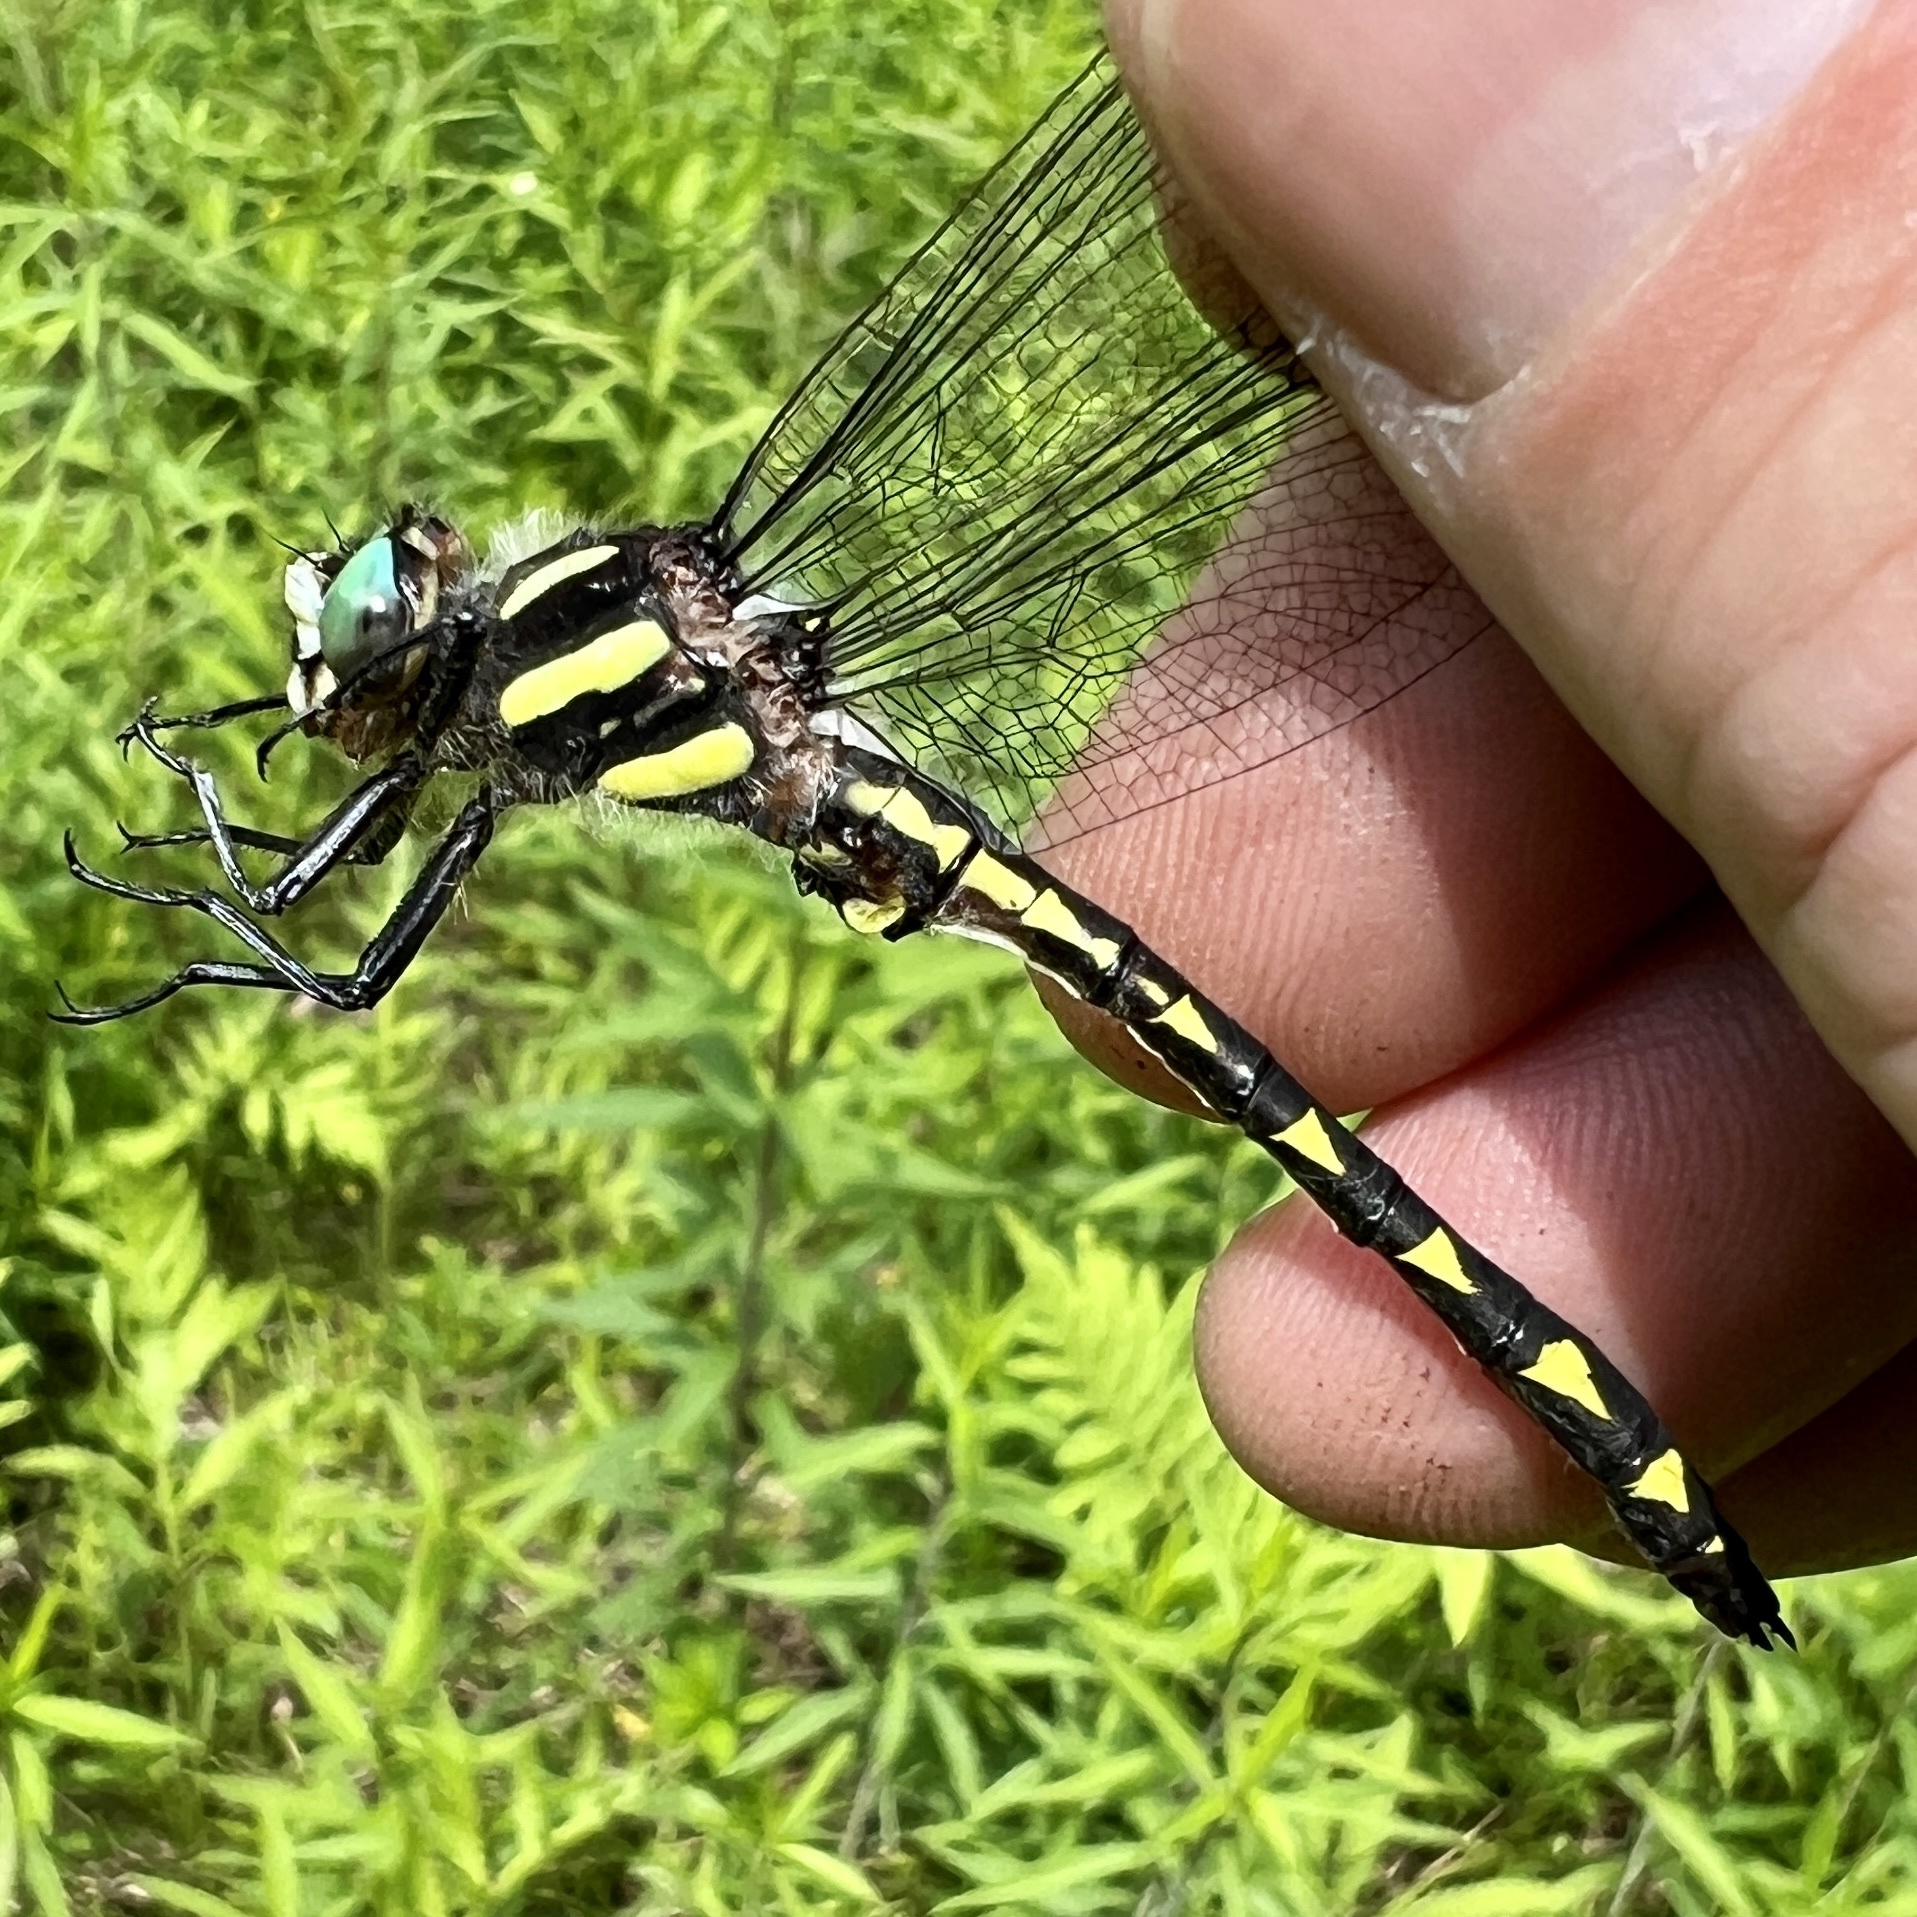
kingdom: Animalia
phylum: Arthropoda
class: Insecta
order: Odonata
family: Cordulegastridae
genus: Cordulegaster
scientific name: Cordulegaster diastatops
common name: Delta-spotted spiketail
